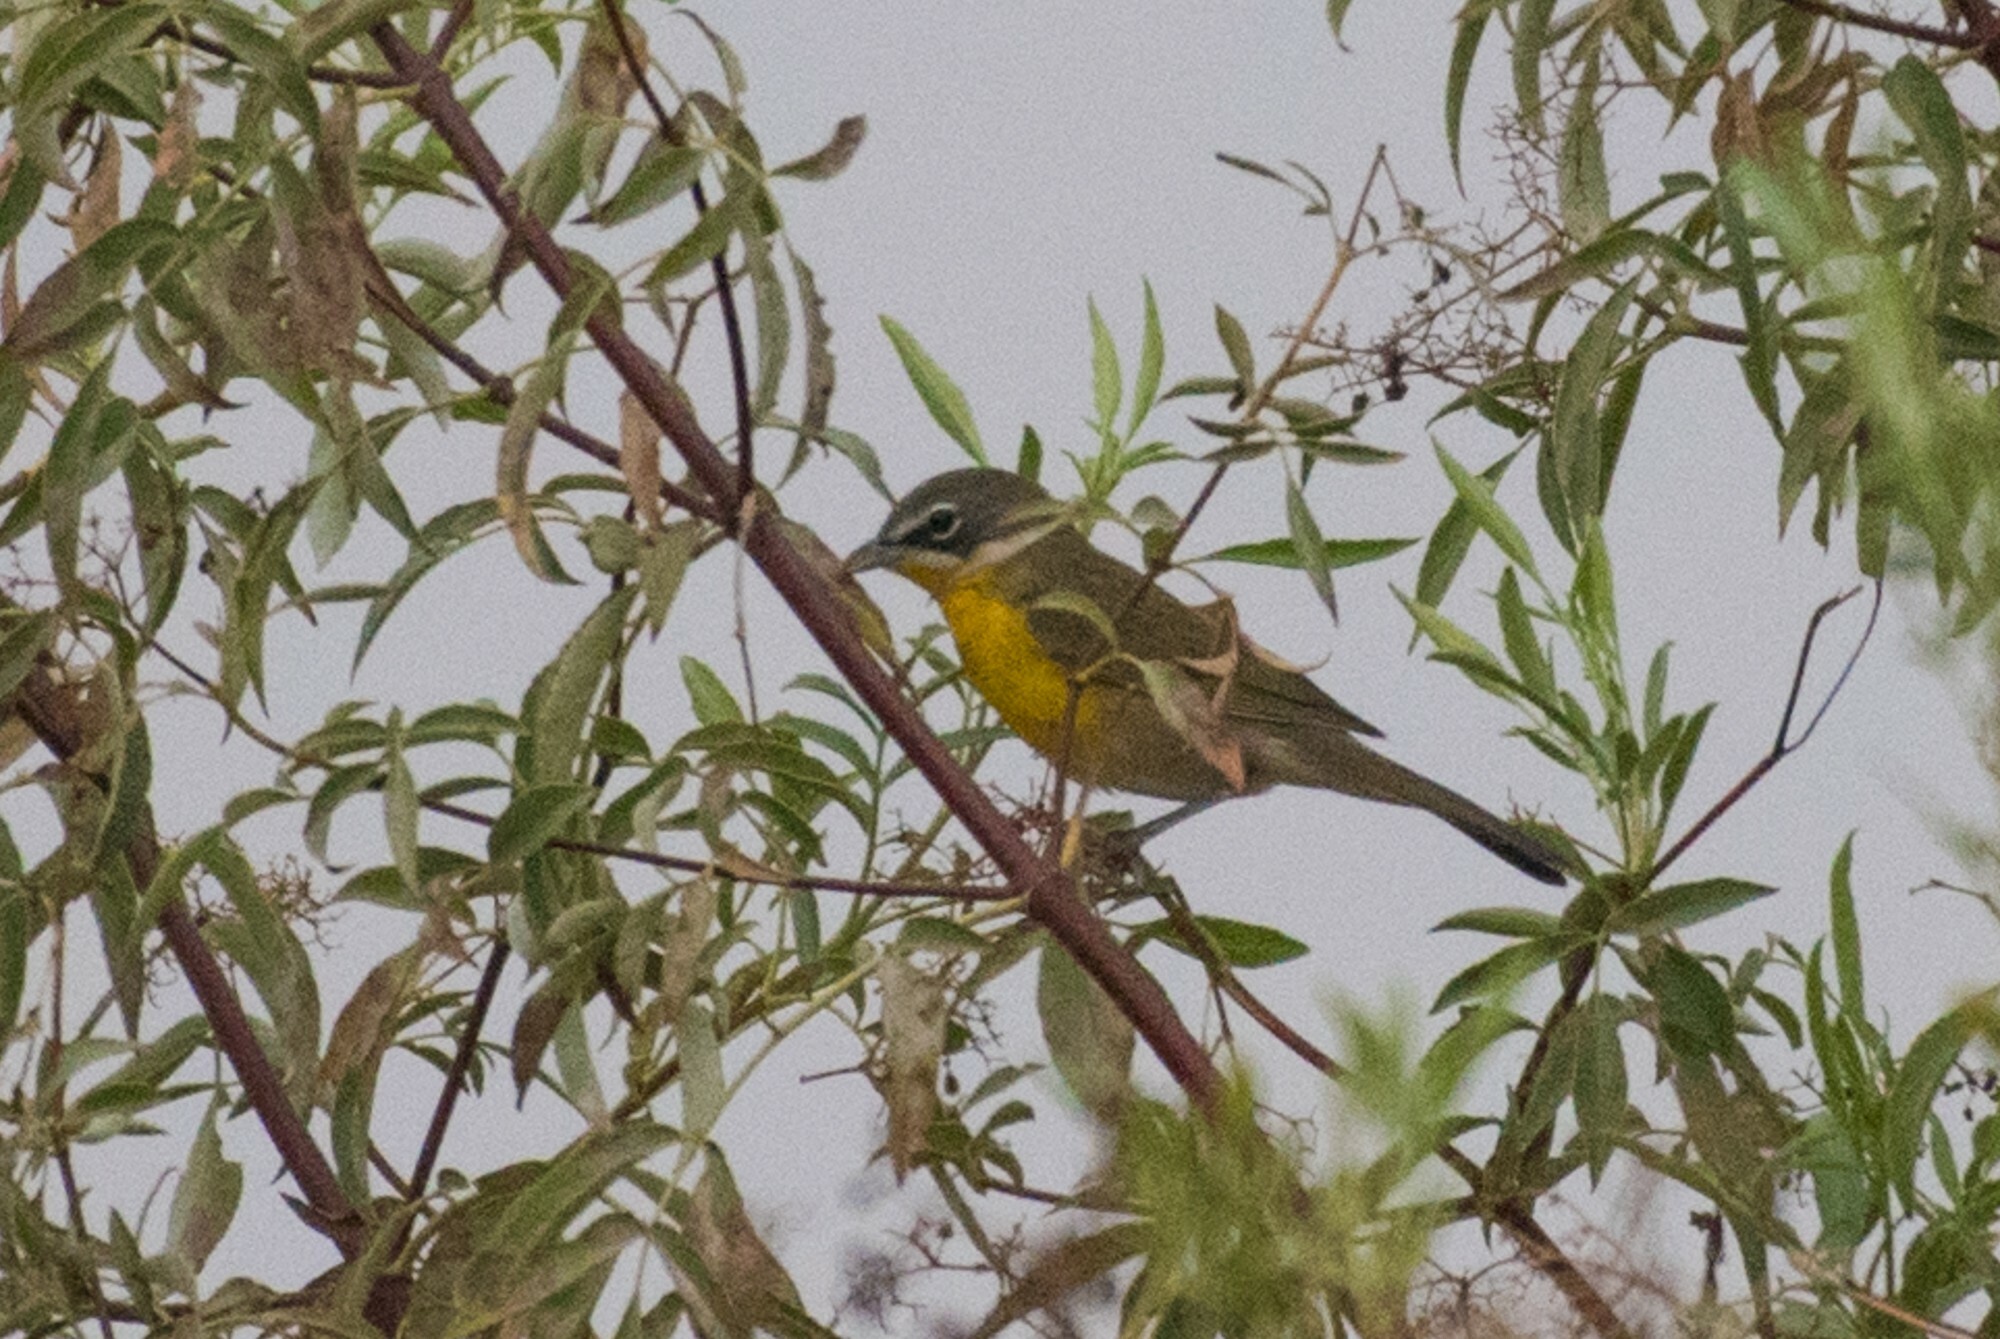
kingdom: Animalia
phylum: Chordata
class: Aves
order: Passeriformes
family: Parulidae
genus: Icteria
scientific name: Icteria virens
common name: Yellow-breasted chat
